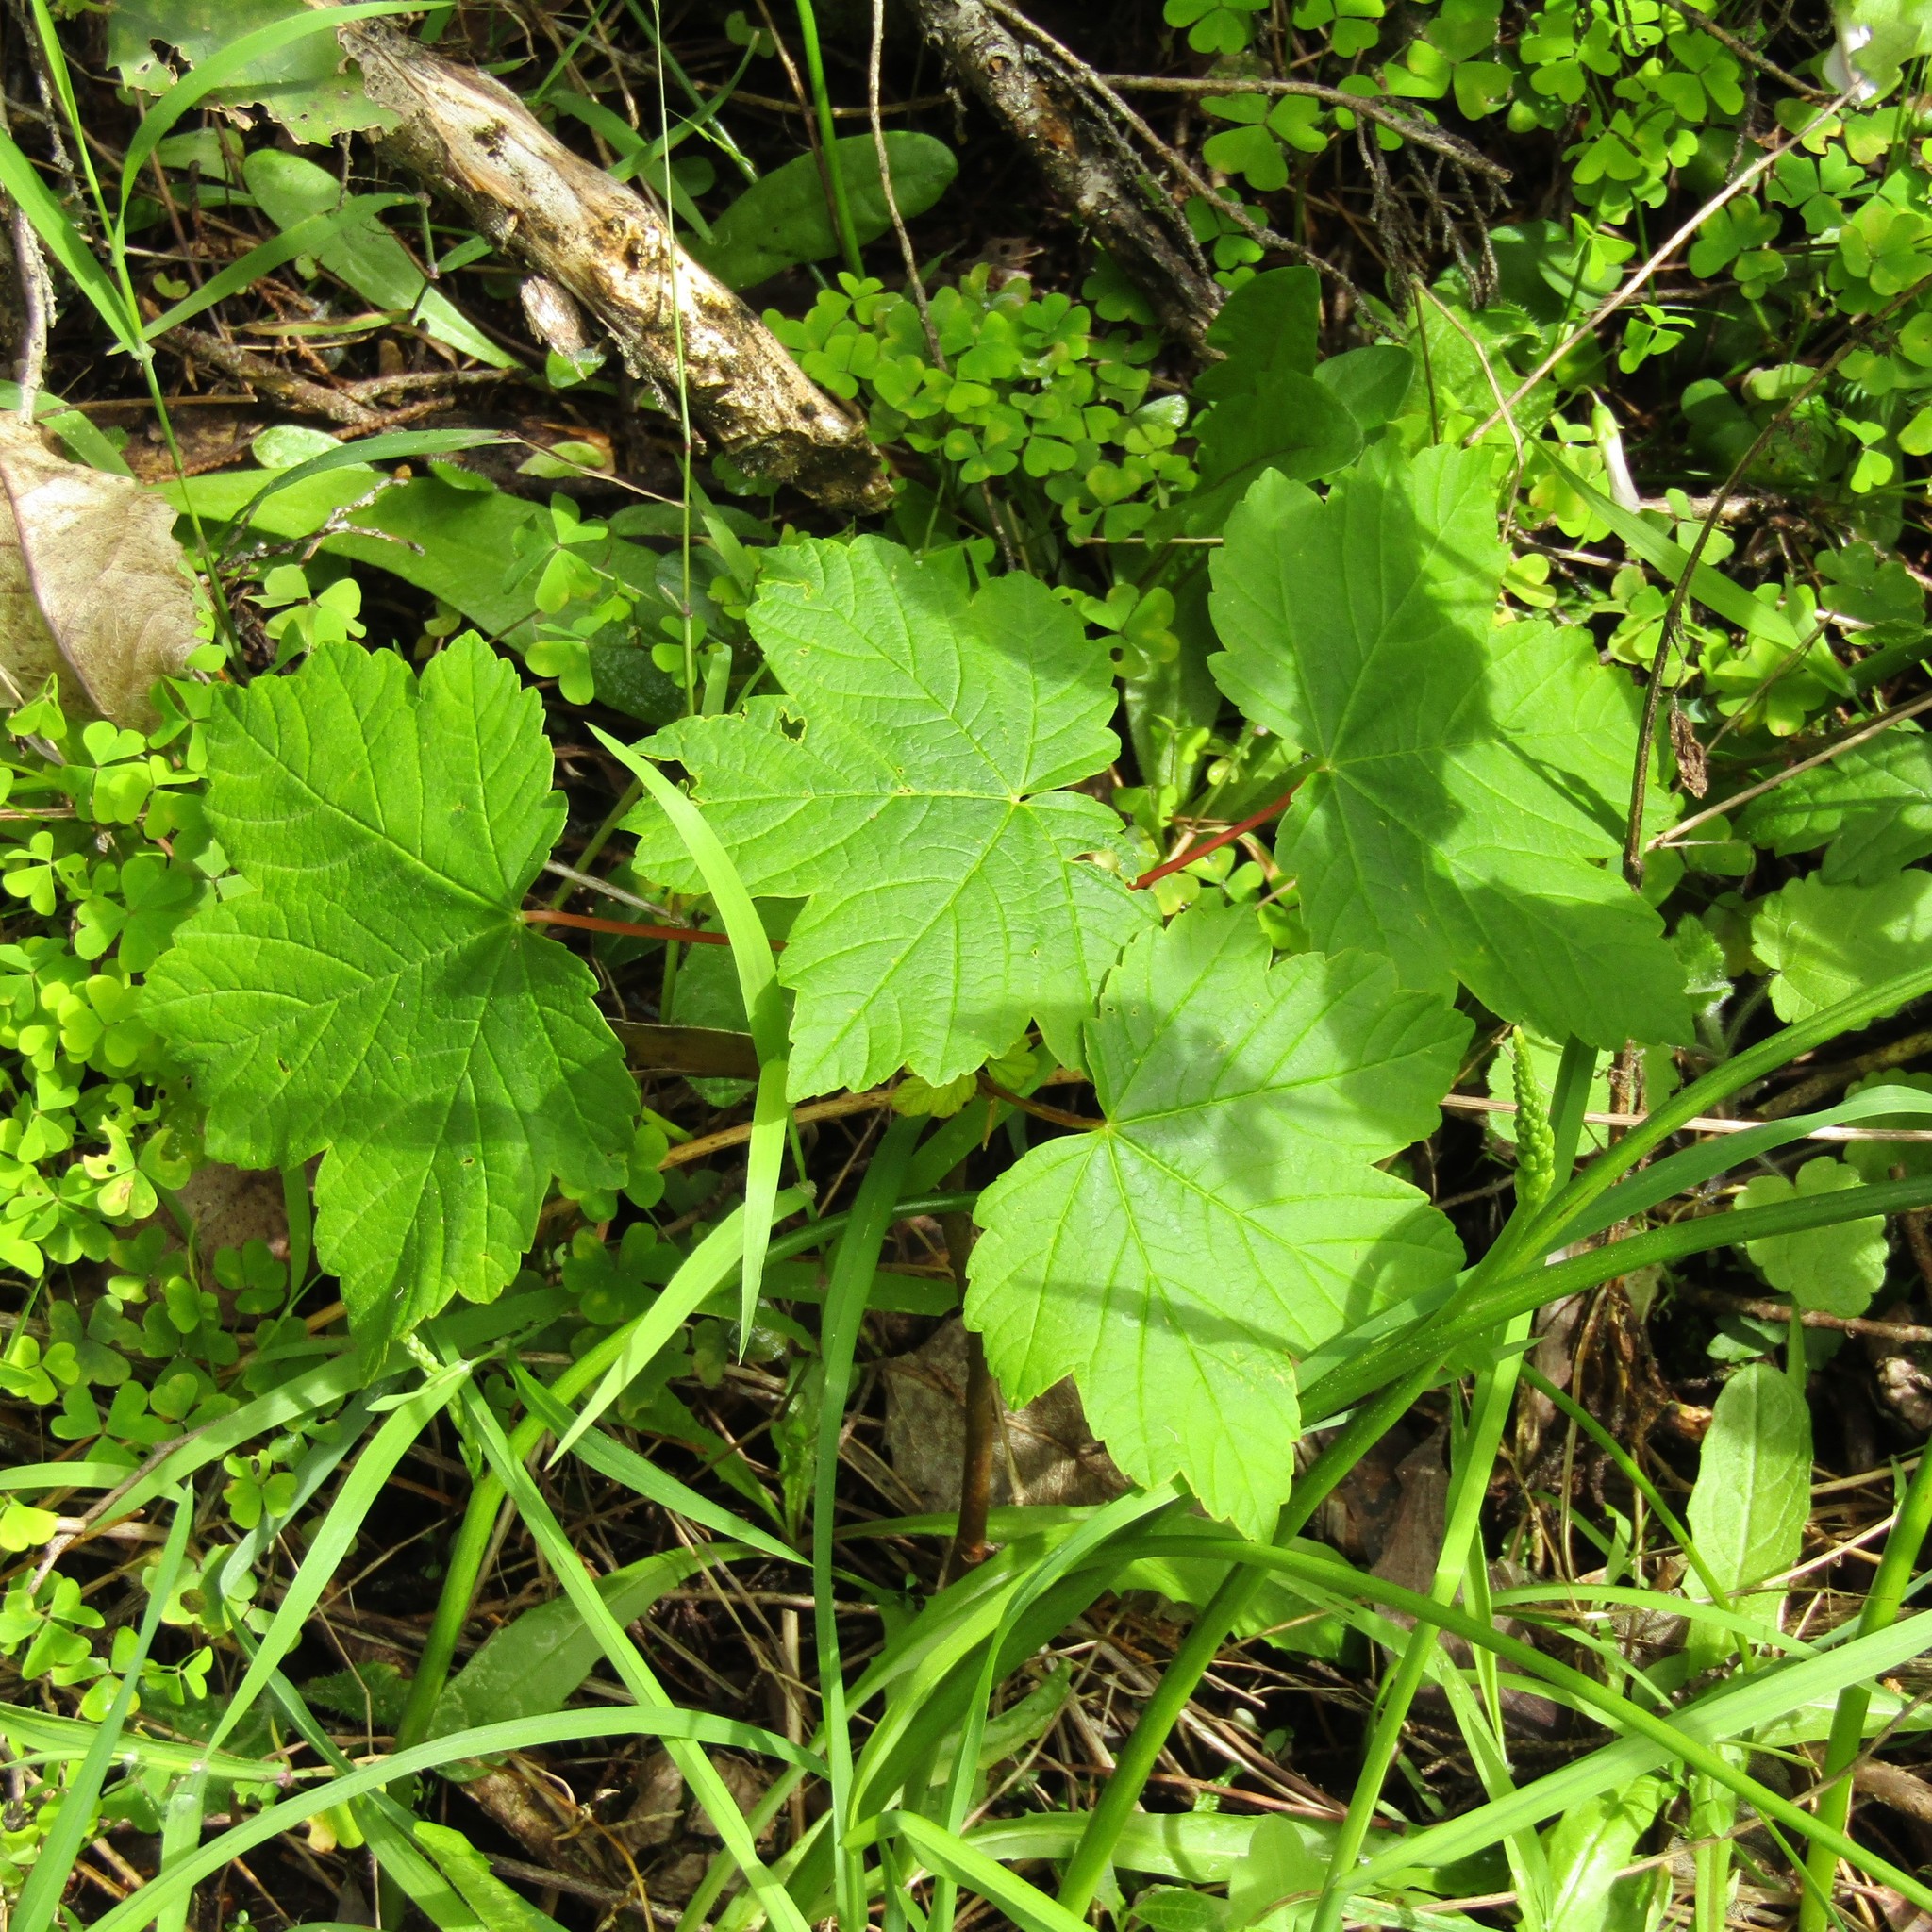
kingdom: Plantae
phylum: Tracheophyta
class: Magnoliopsida
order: Sapindales
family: Sapindaceae
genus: Acer
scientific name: Acer pseudoplatanus
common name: Sycamore
